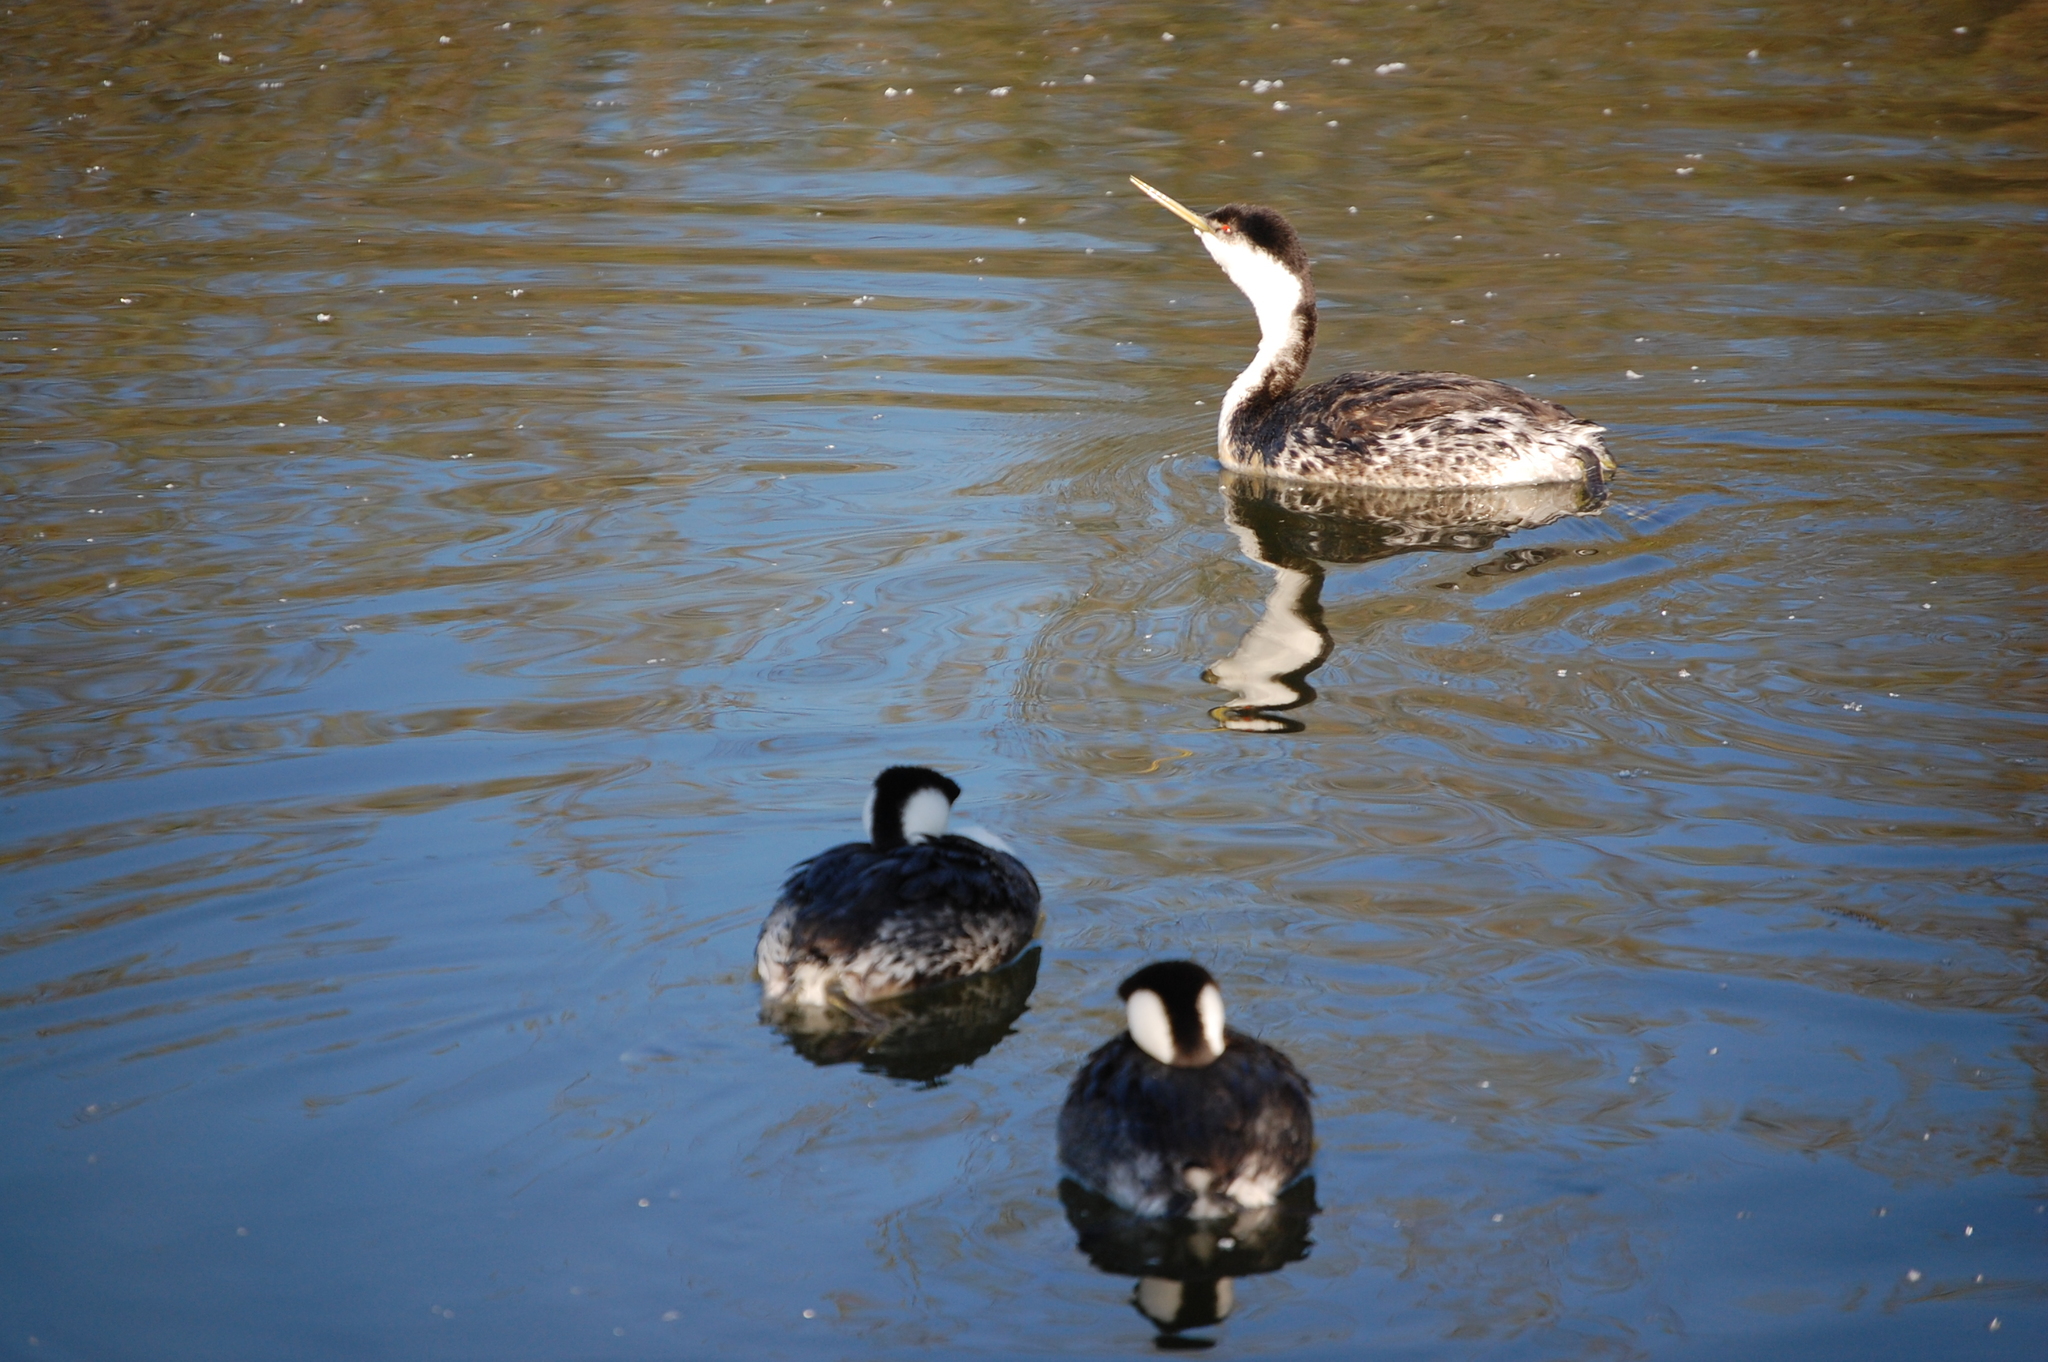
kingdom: Animalia
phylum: Chordata
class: Aves
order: Podicipediformes
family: Podicipedidae
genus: Aechmophorus
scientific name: Aechmophorus occidentalis
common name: Western grebe
